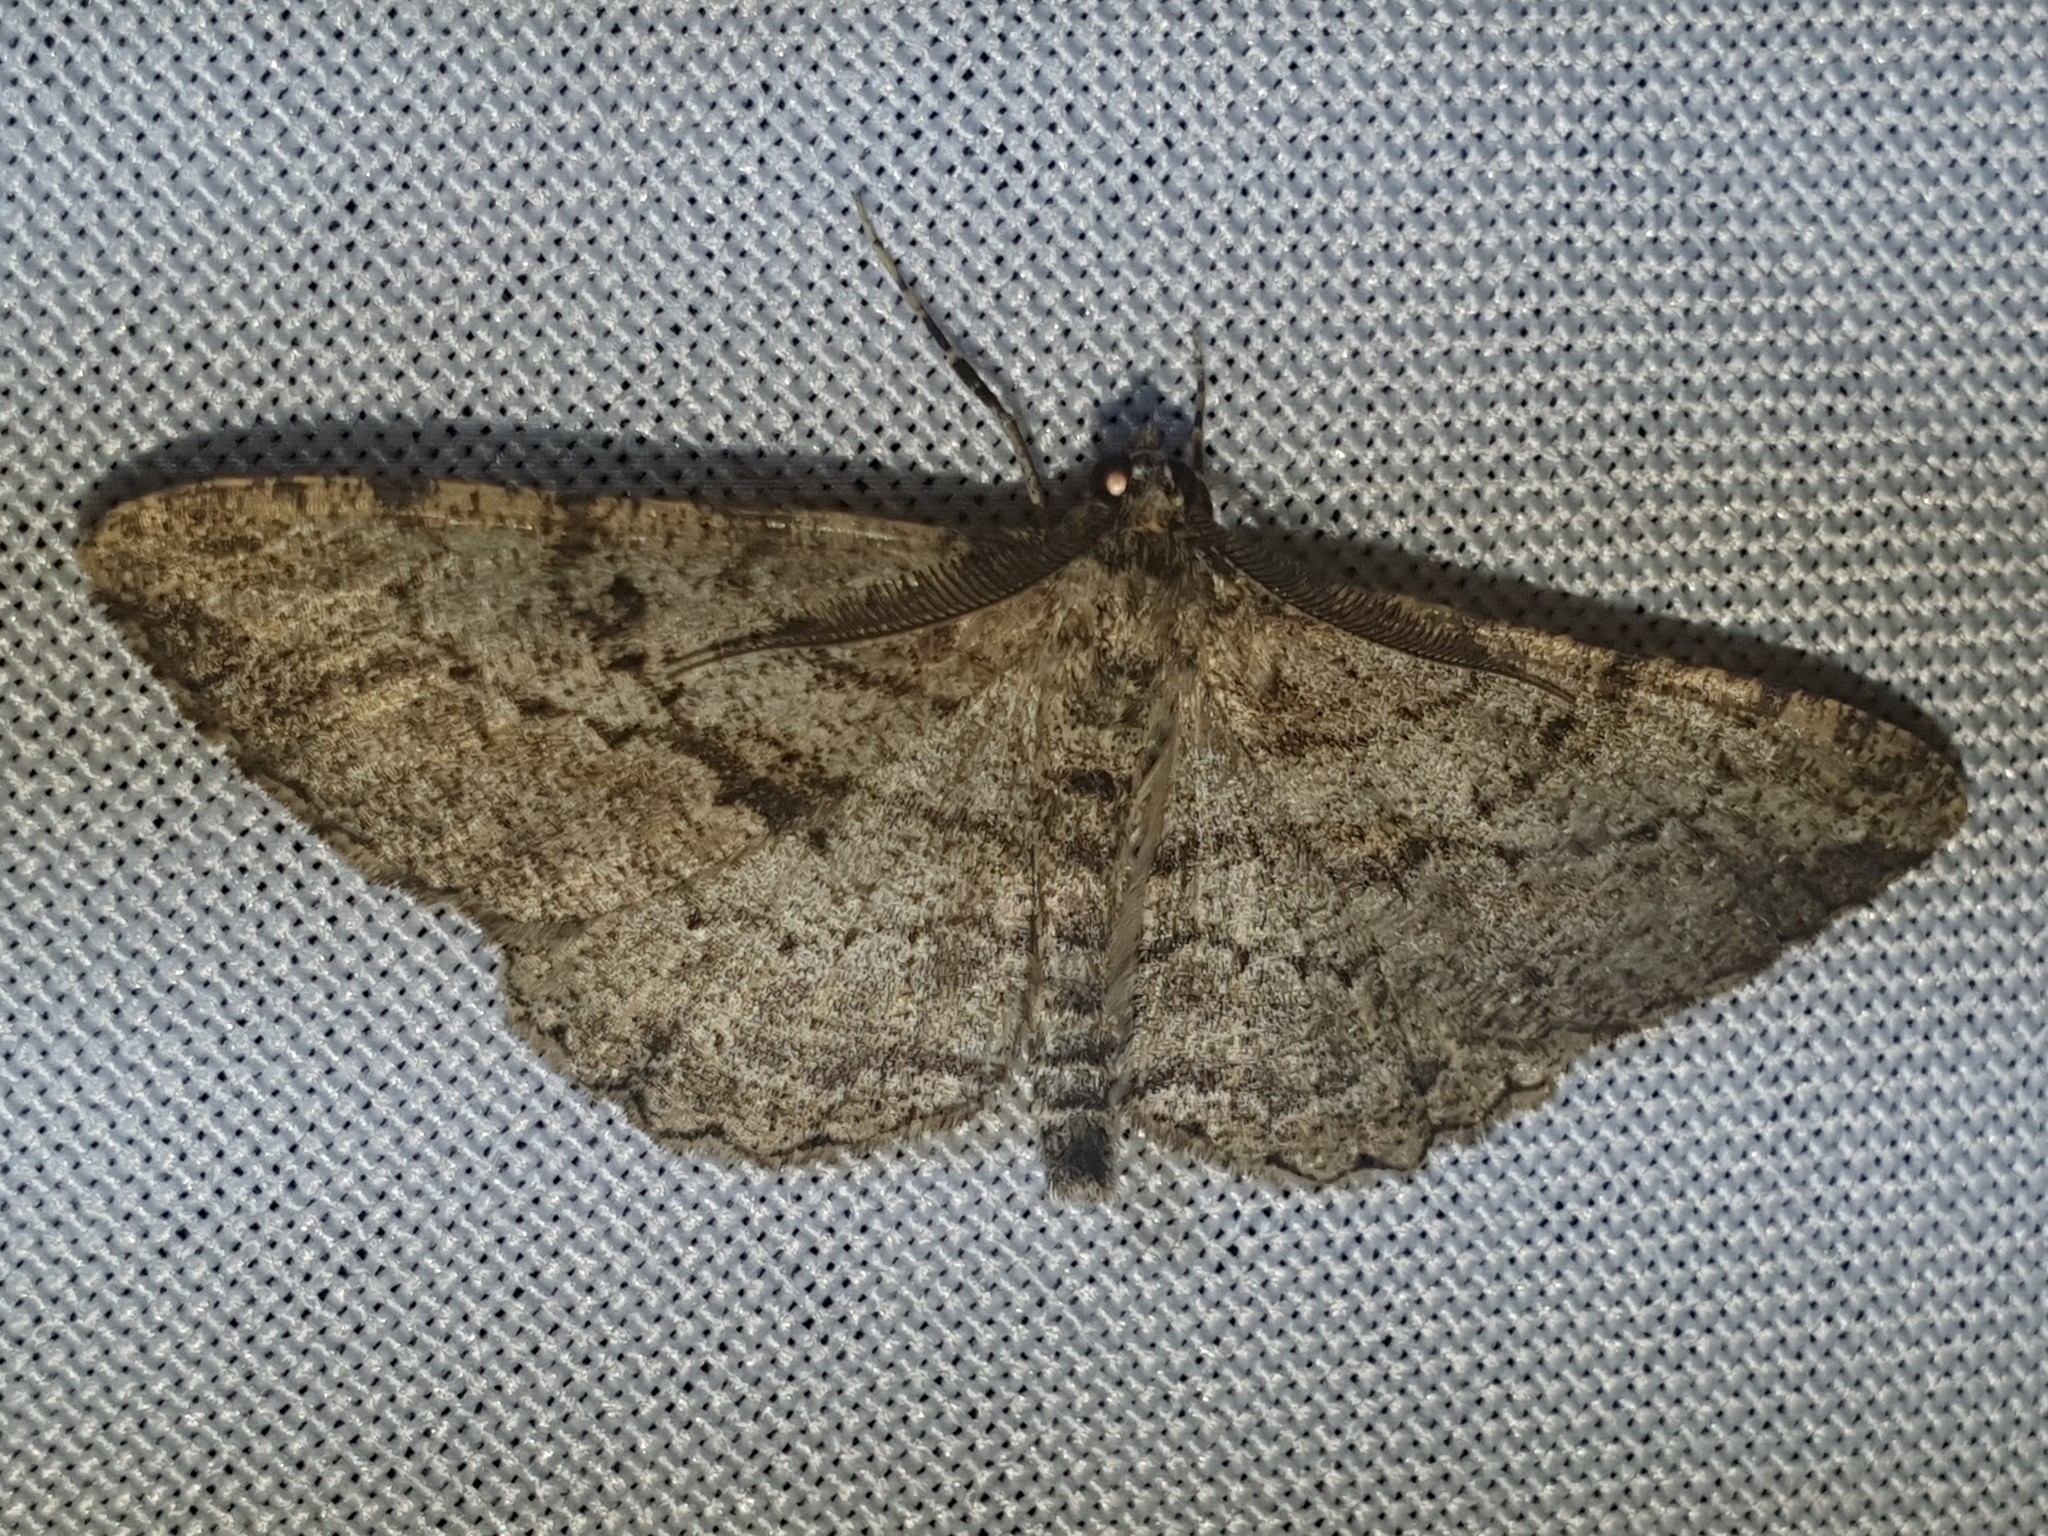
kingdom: Animalia
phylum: Arthropoda
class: Insecta
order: Lepidoptera
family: Geometridae
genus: Peribatodes
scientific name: Peribatodes rhomboidaria
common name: Willow beauty
